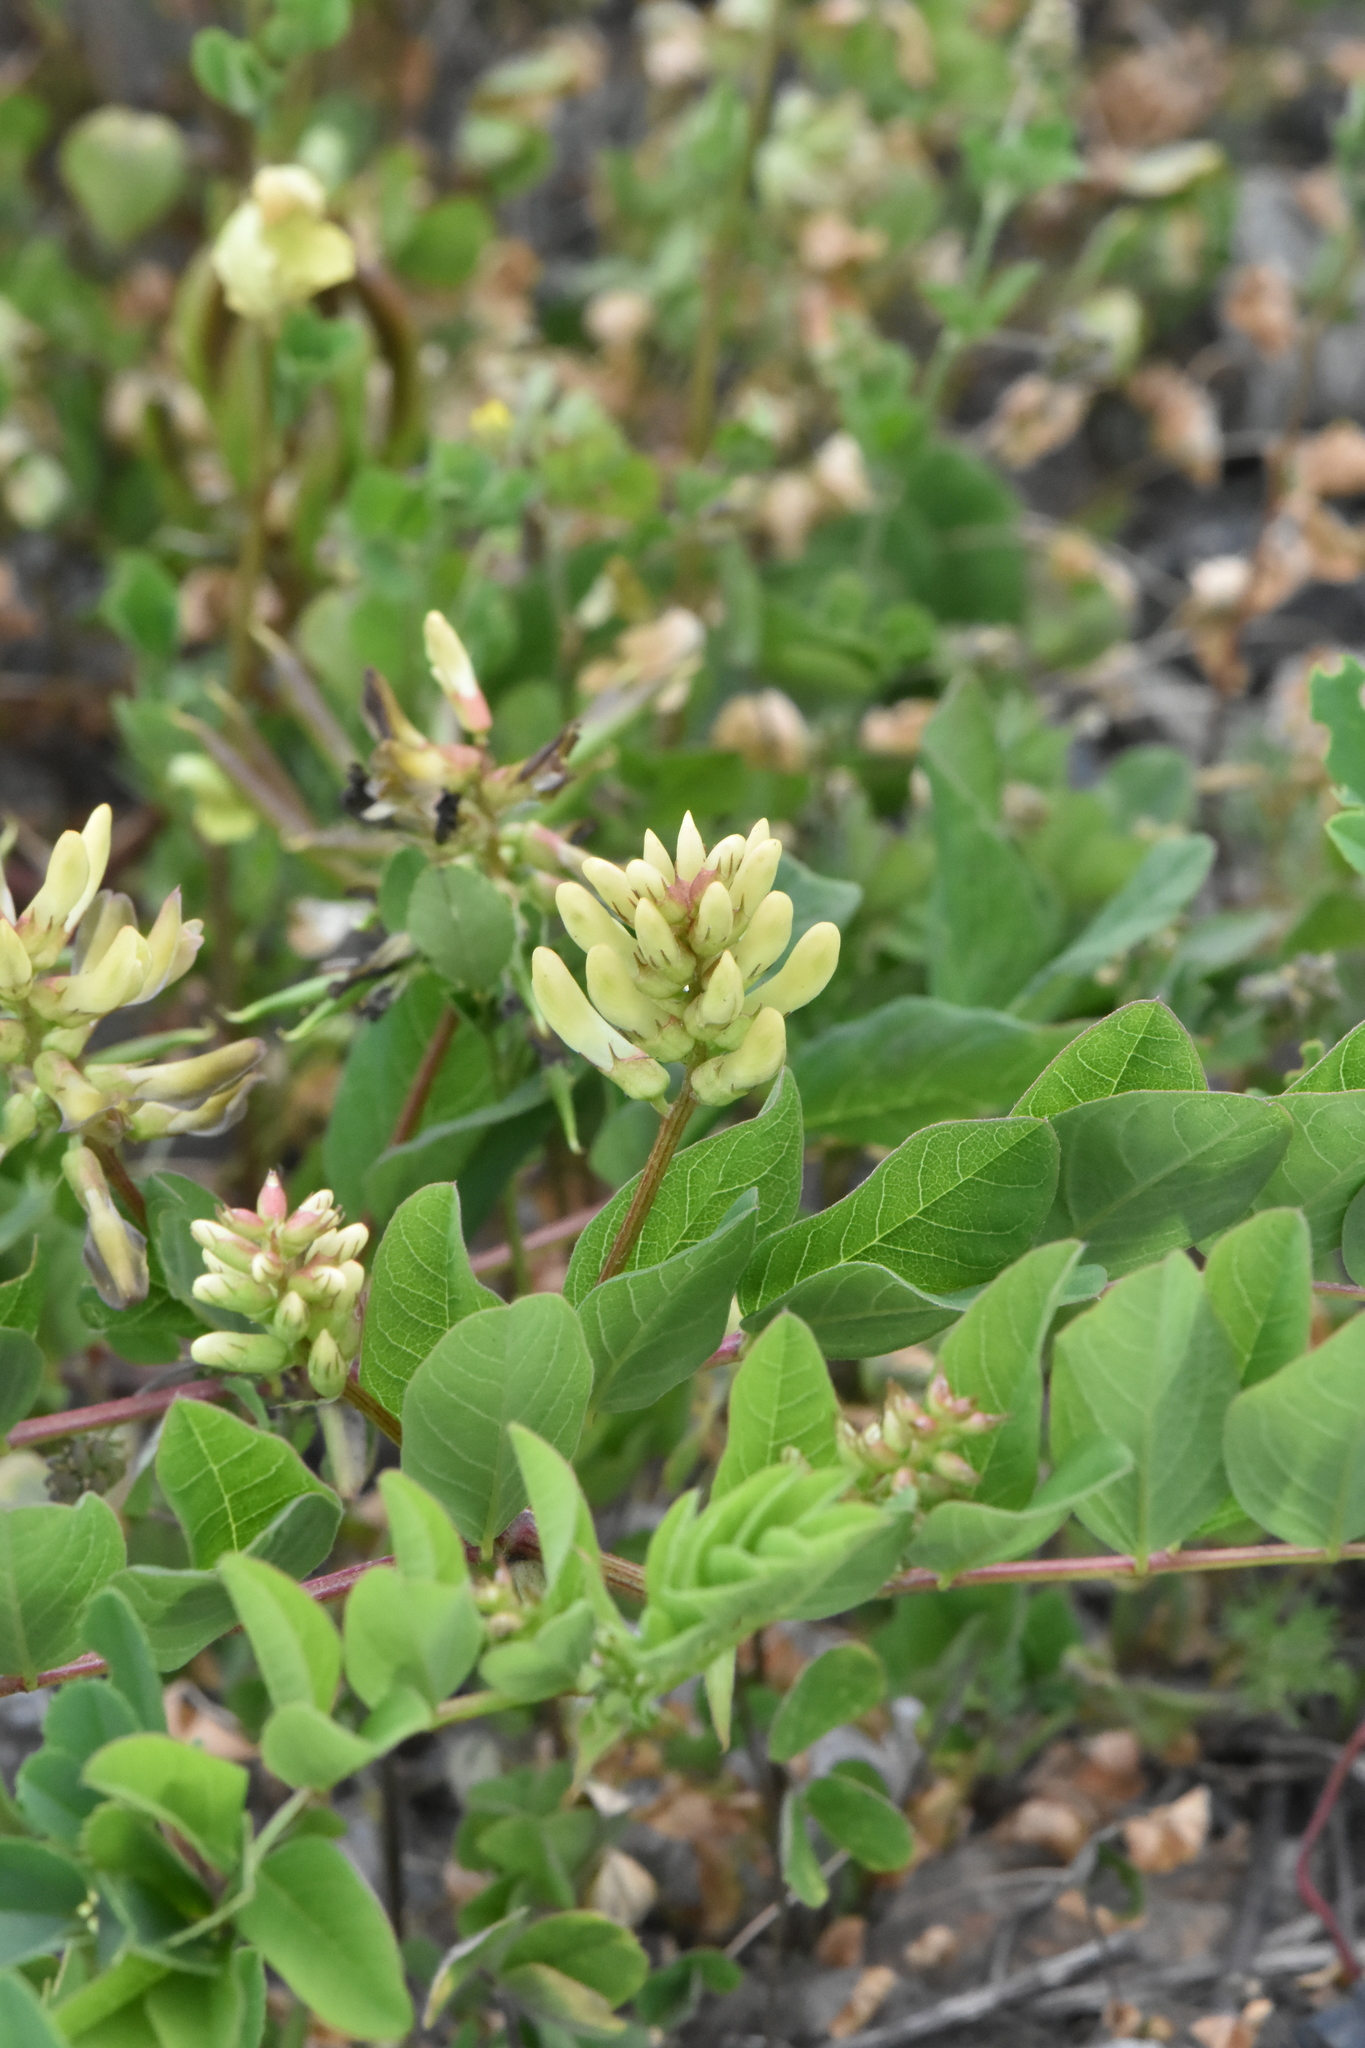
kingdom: Plantae
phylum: Tracheophyta
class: Magnoliopsida
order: Fabales
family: Fabaceae
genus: Astragalus
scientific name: Astragalus glycyphyllos
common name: Wild liquorice
